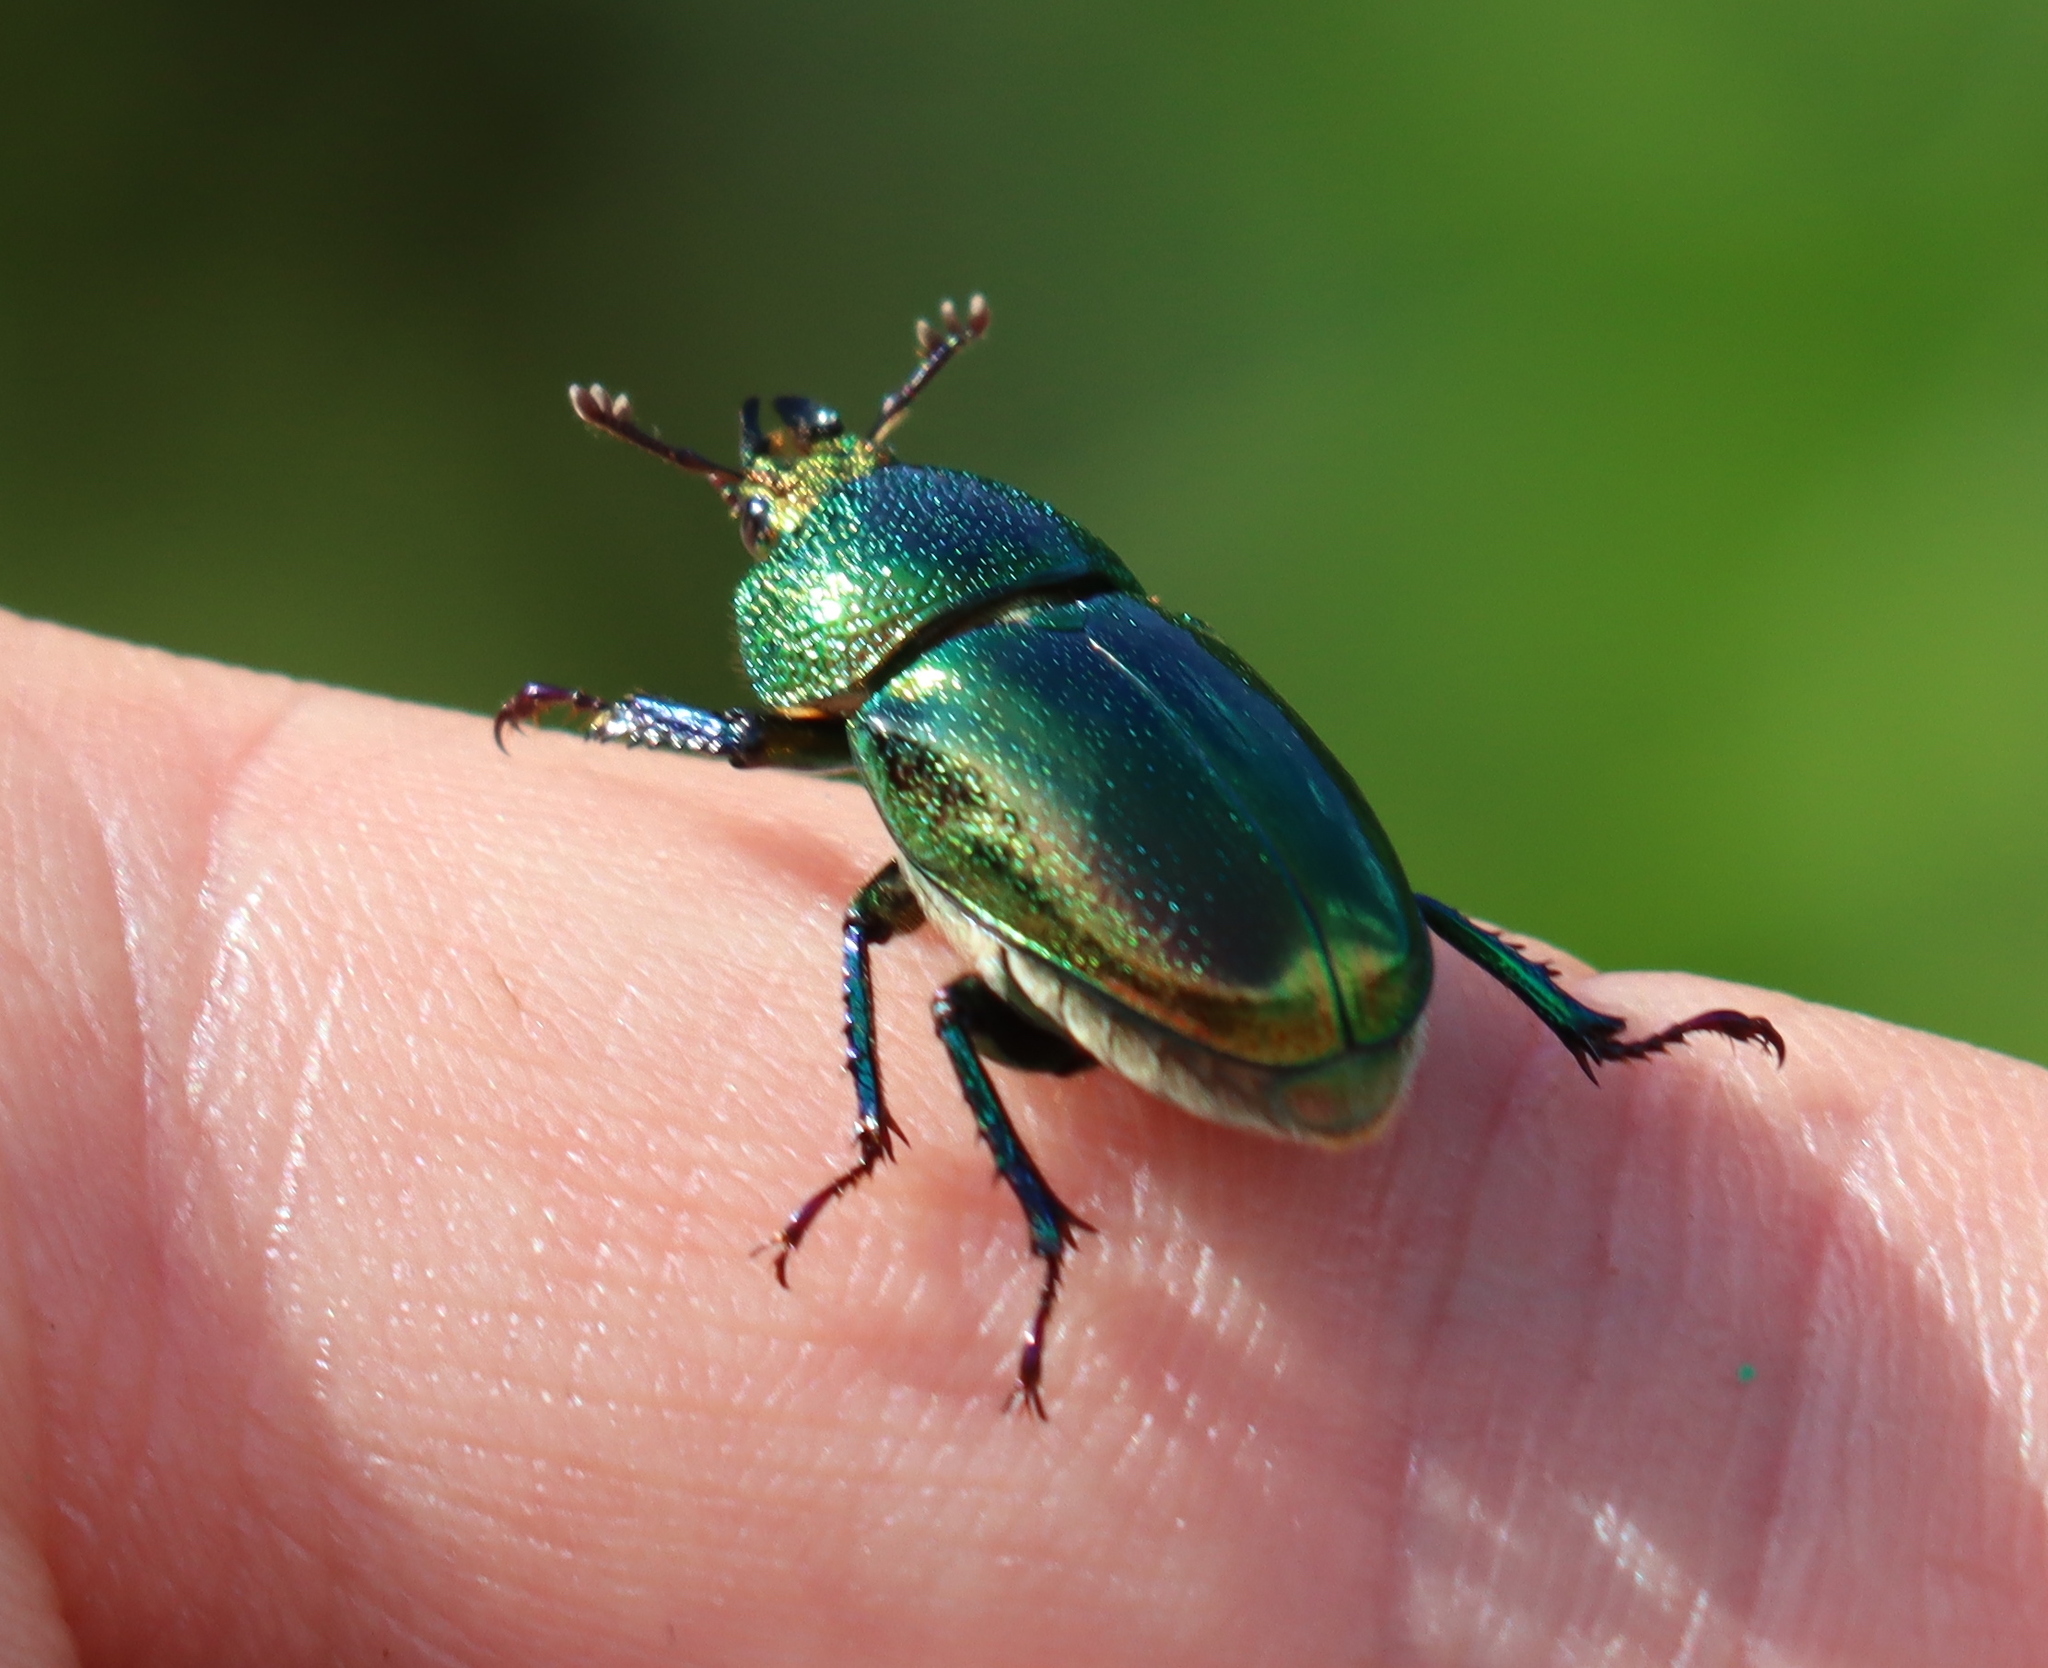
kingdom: Animalia
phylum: Arthropoda
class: Insecta
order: Coleoptera
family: Lucanidae
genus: Lamprima
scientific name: Lamprima aurata
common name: Golden stag beetle
